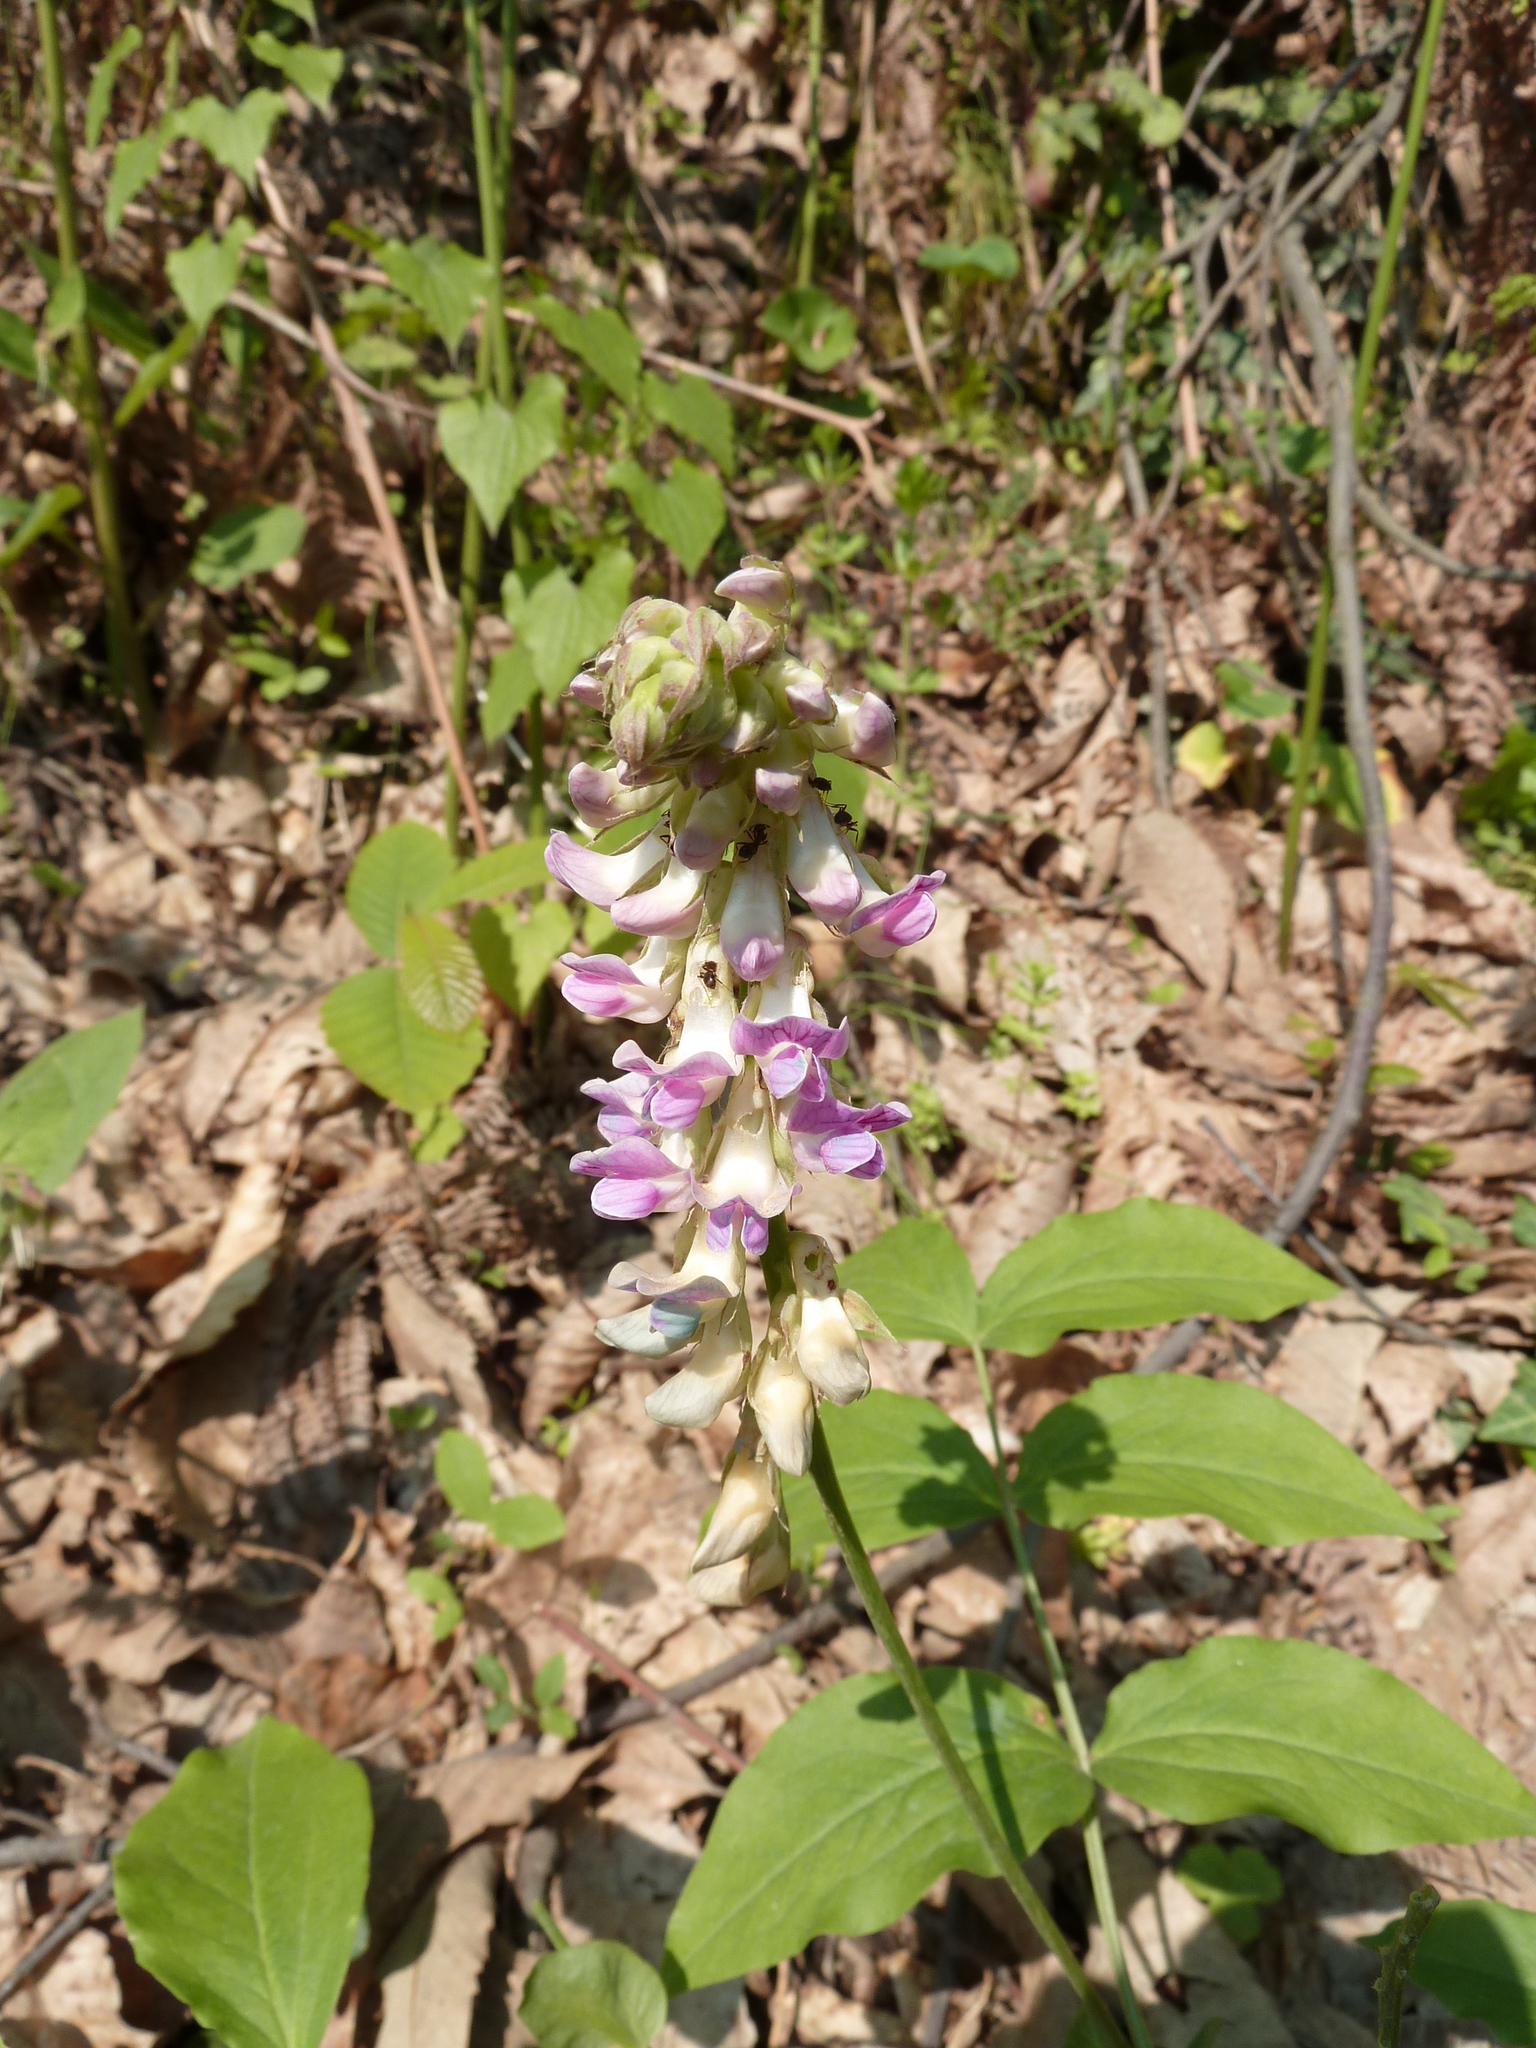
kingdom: Plantae
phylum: Tracheophyta
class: Magnoliopsida
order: Fabales
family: Fabaceae
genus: Lathyrus
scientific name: Lathyrus venetus
